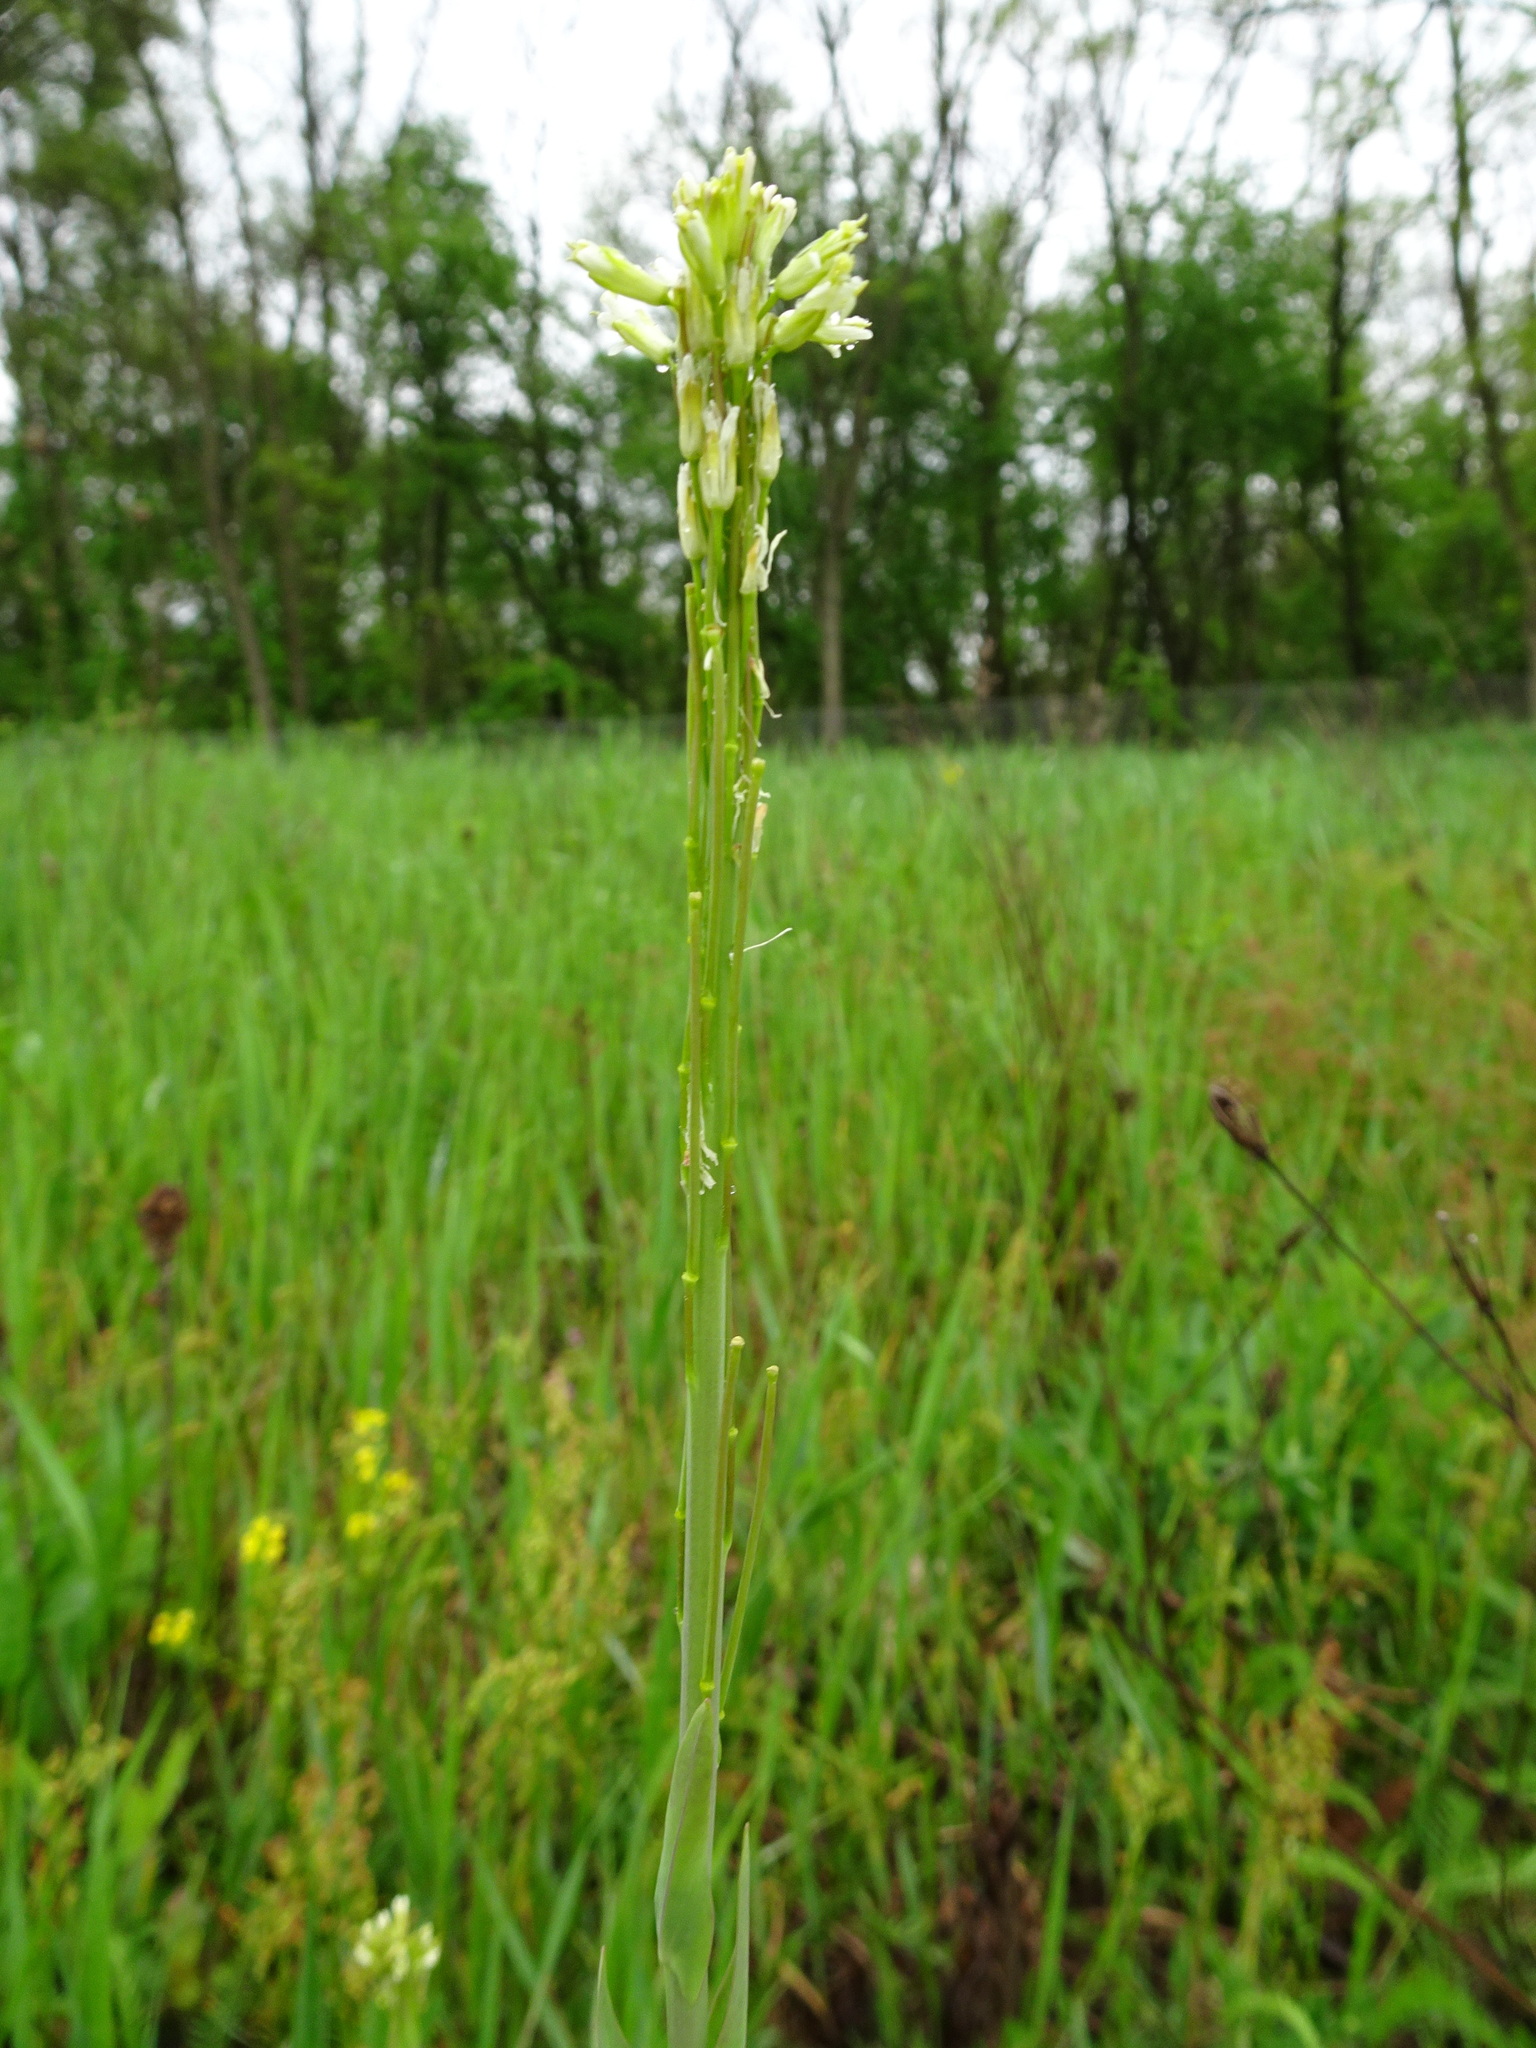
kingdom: Plantae
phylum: Tracheophyta
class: Magnoliopsida
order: Brassicales
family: Brassicaceae
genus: Turritis
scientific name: Turritis glabra
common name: Tower rockcress
